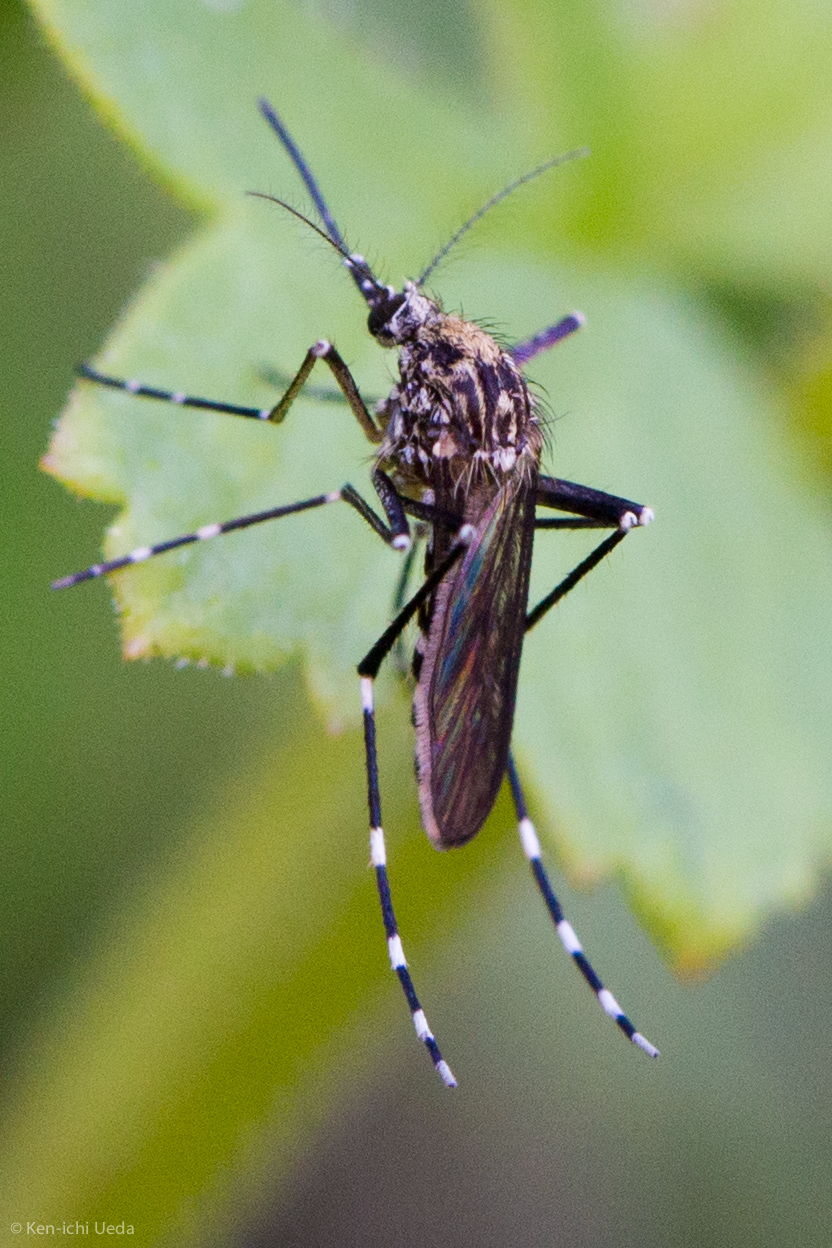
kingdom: Animalia
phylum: Arthropoda
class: Insecta
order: Diptera
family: Culicidae
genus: Aedes
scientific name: Aedes sierrensis
